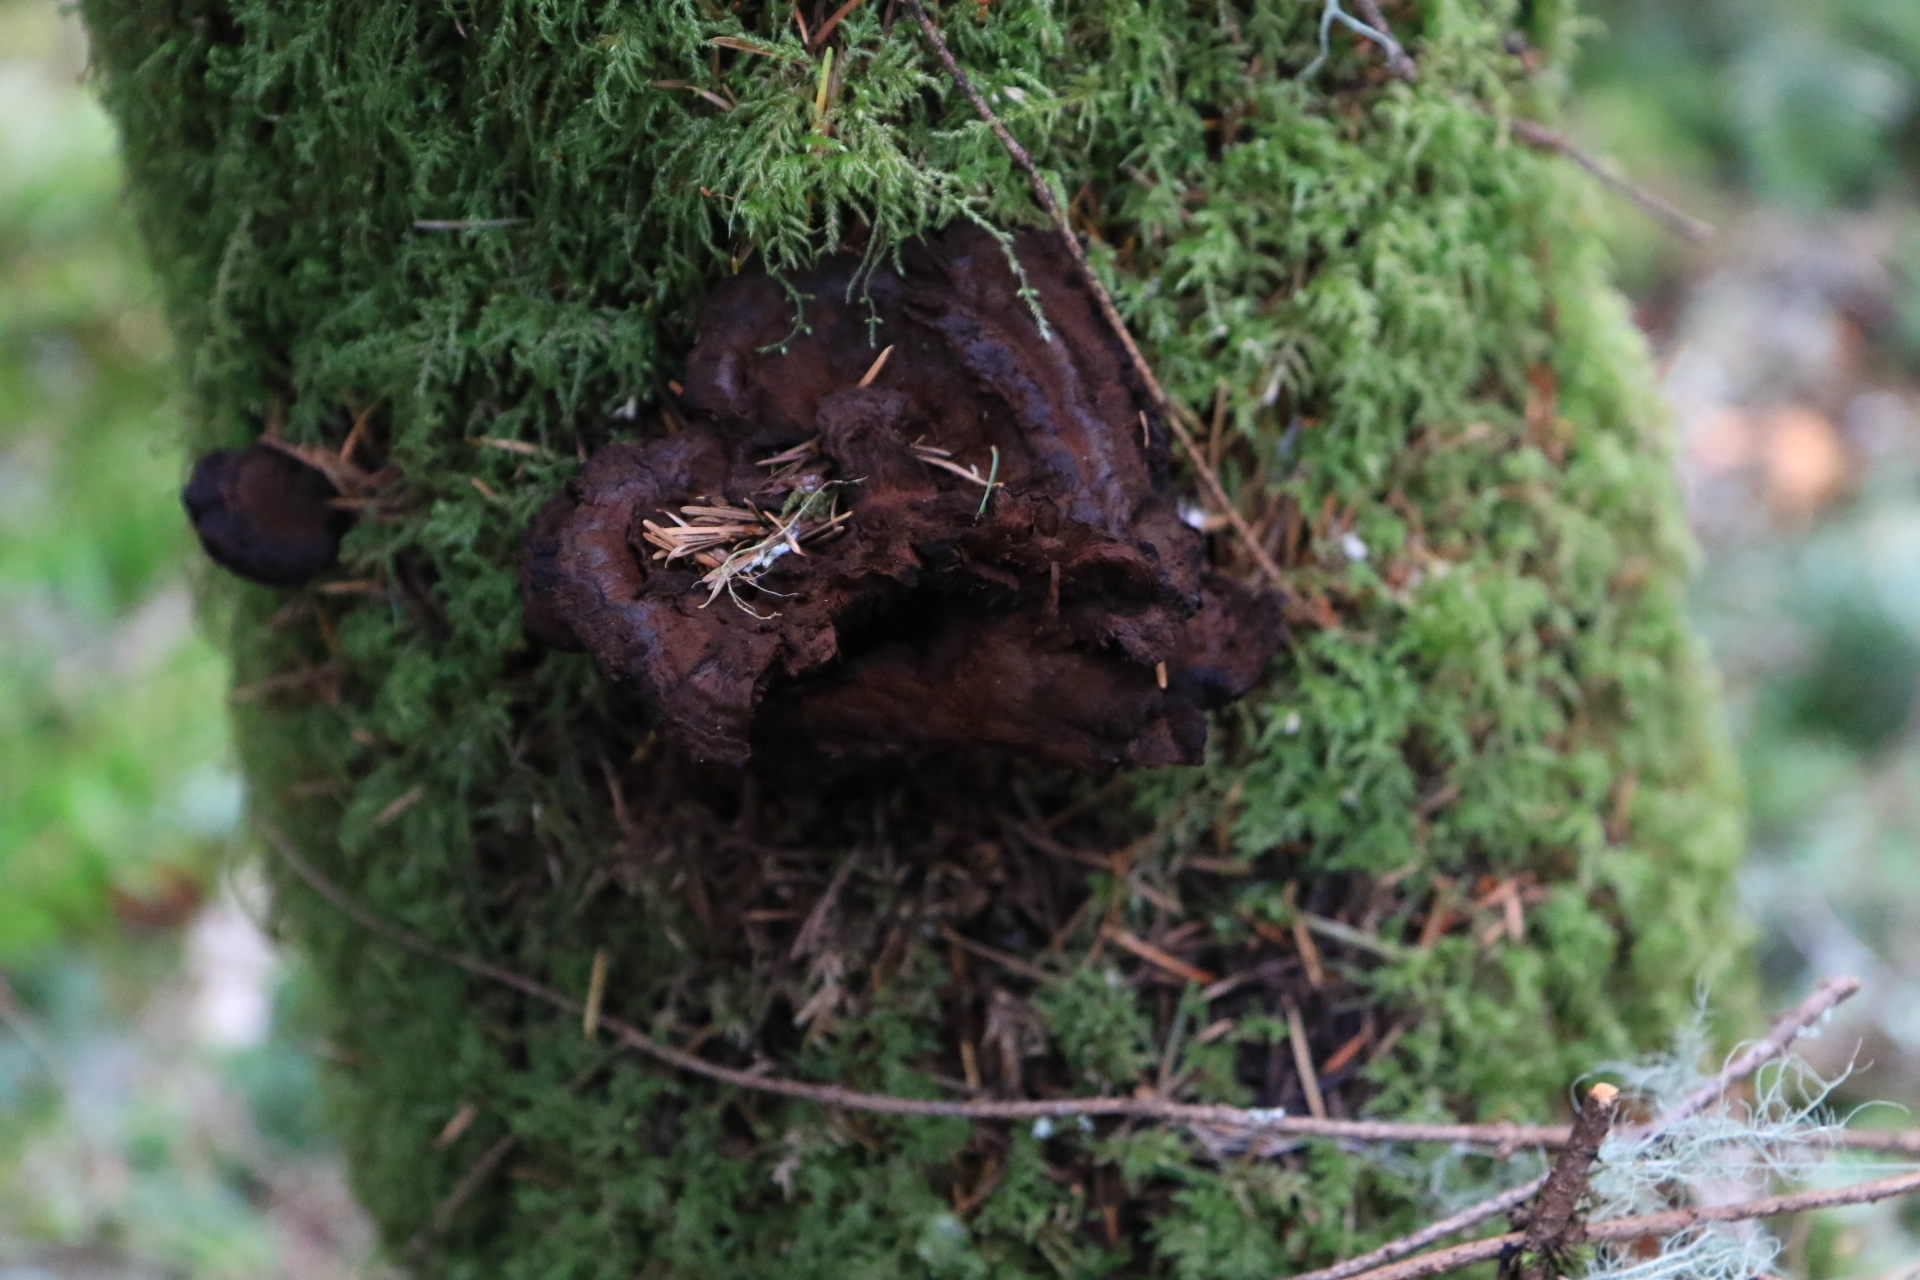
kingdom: Fungi
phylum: Basidiomycota
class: Agaricomycetes
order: Polyporales
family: Laetiporaceae
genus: Phaeolus
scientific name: Phaeolus schweinitzii
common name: Dyer's mazegill
